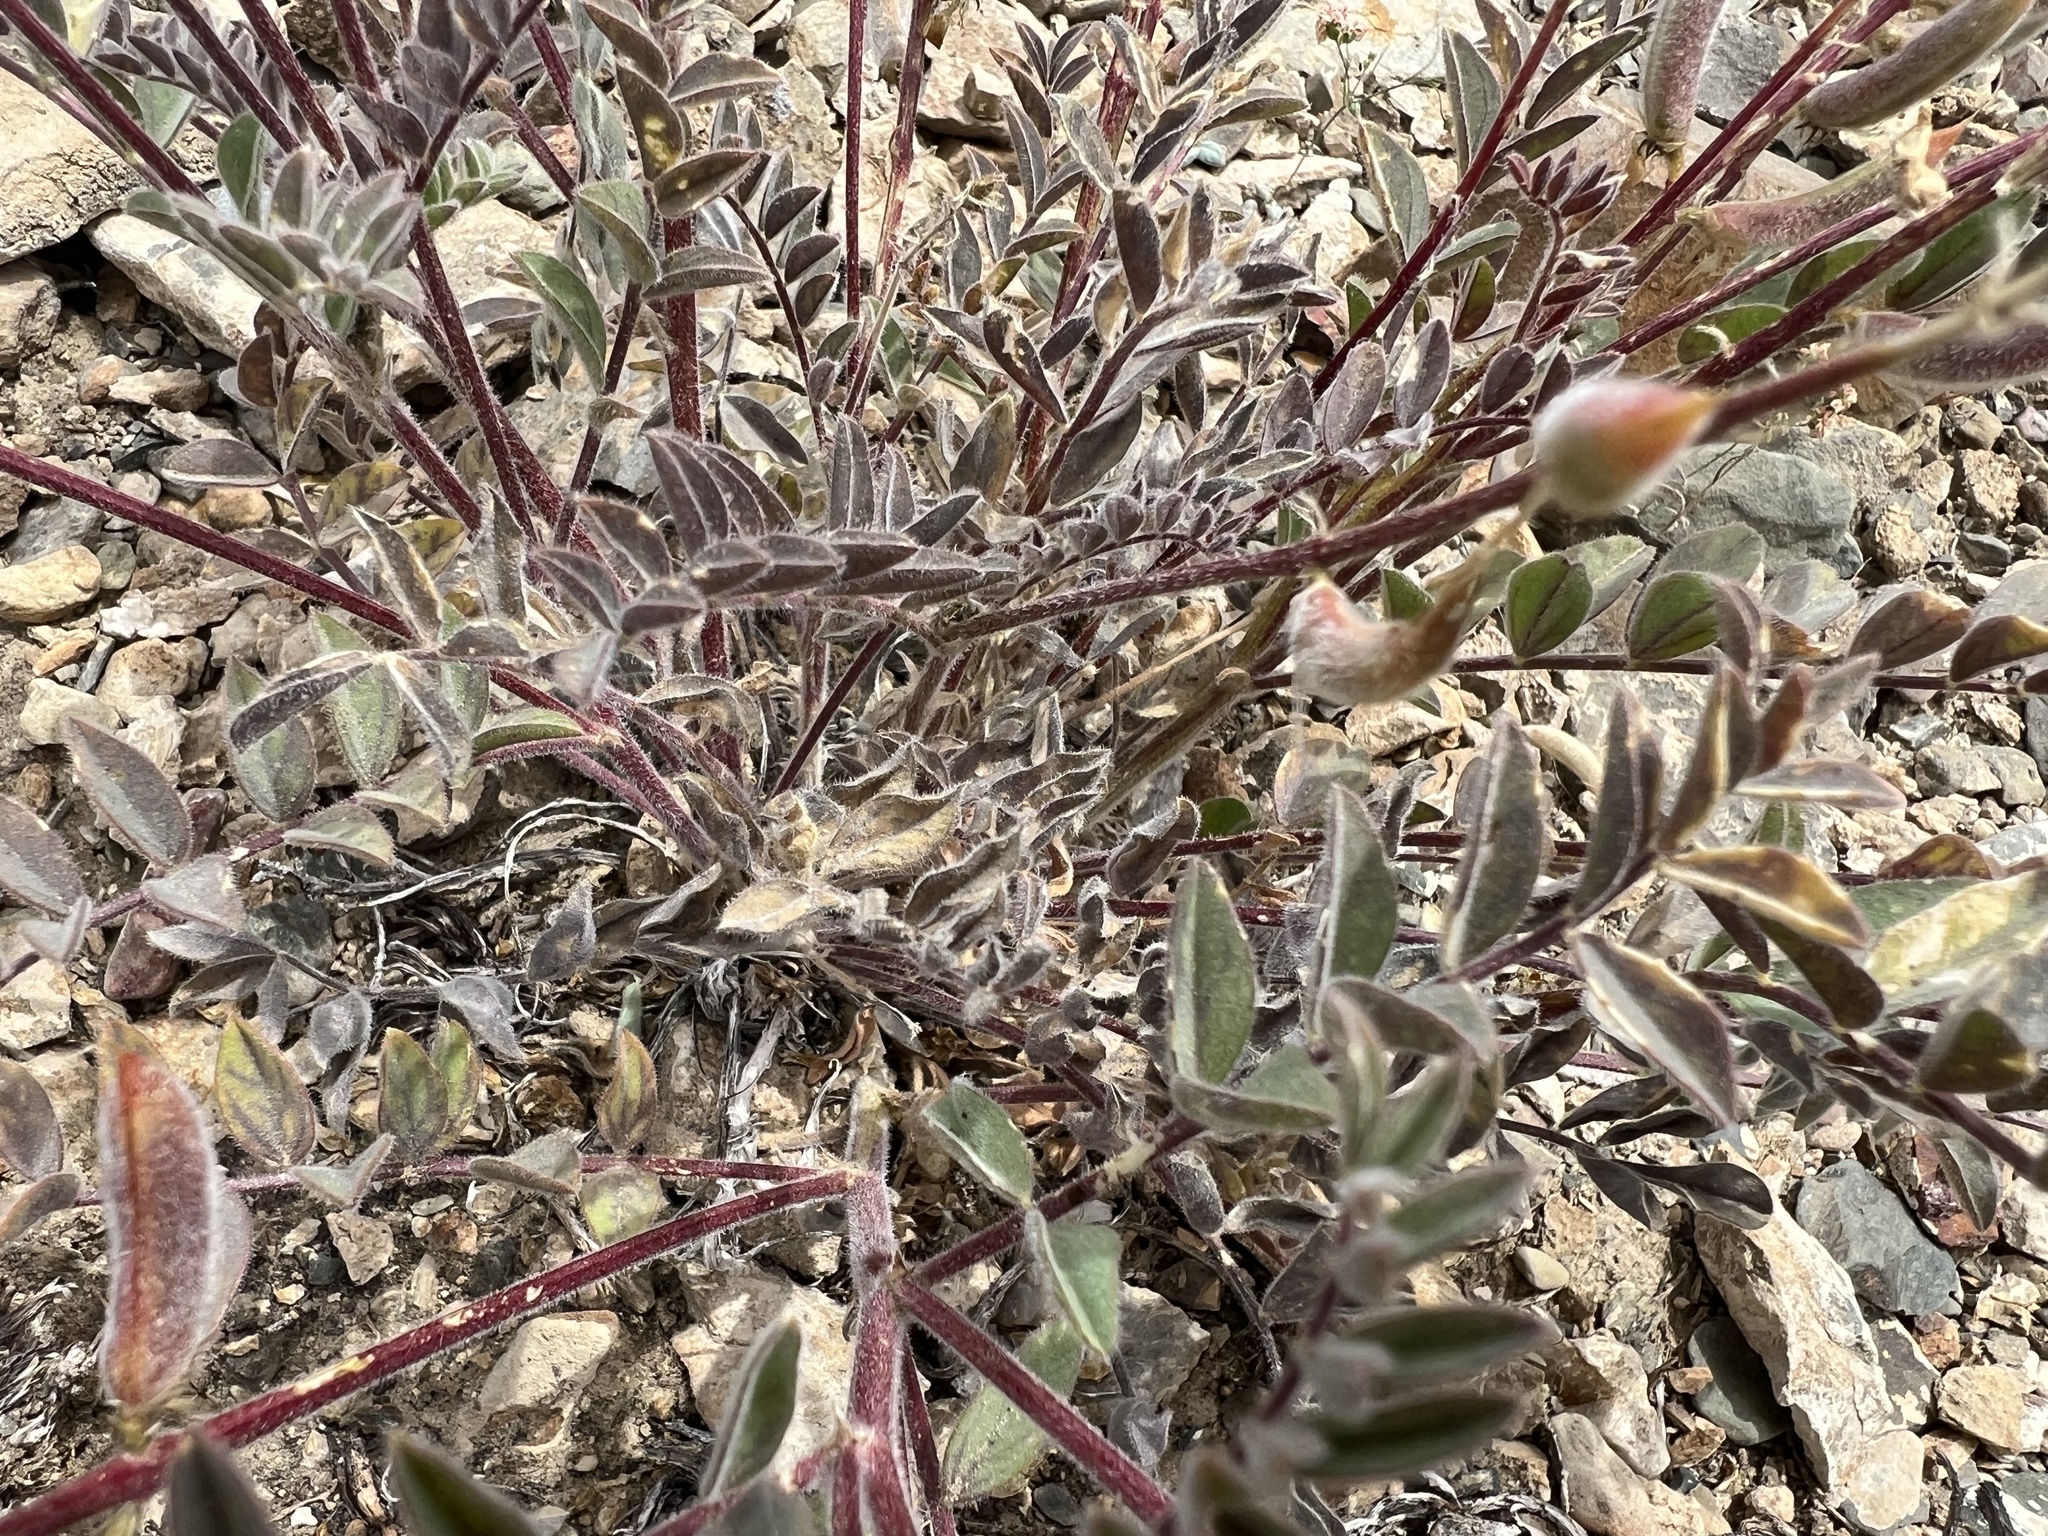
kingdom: Plantae
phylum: Tracheophyta
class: Magnoliopsida
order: Fabales
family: Fabaceae
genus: Astragalus
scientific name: Astragalus minthorniae
